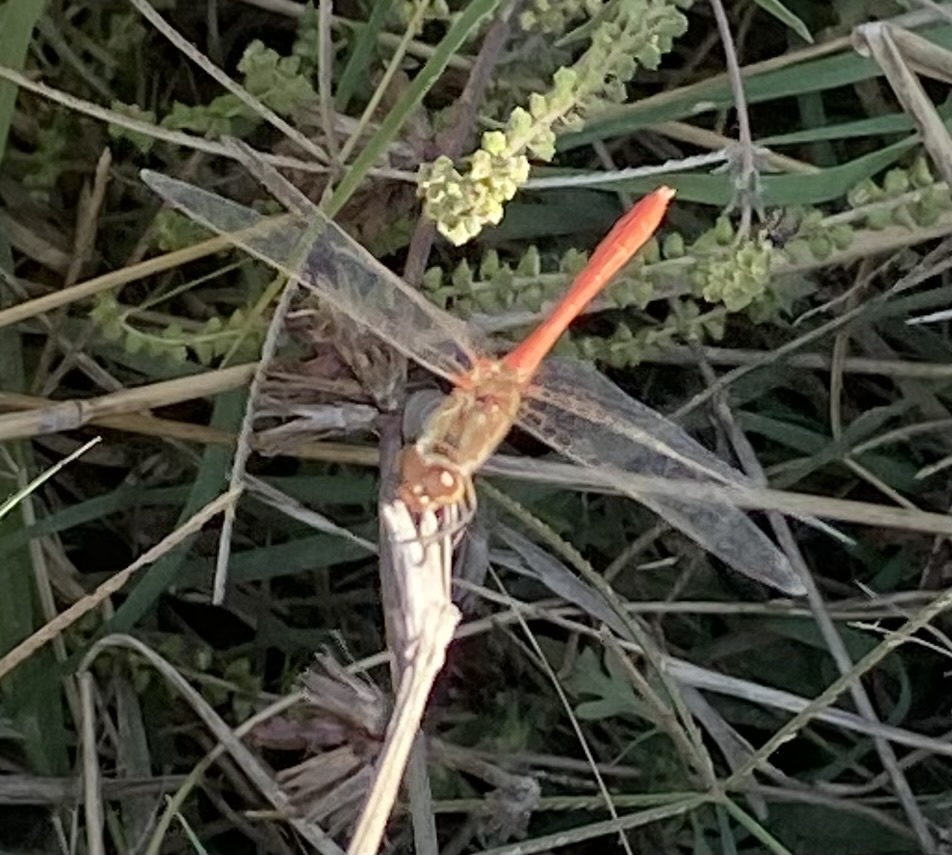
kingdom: Animalia
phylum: Arthropoda
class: Insecta
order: Odonata
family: Libellulidae
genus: Sympetrum
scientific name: Sympetrum meridionale
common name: Southern darter
